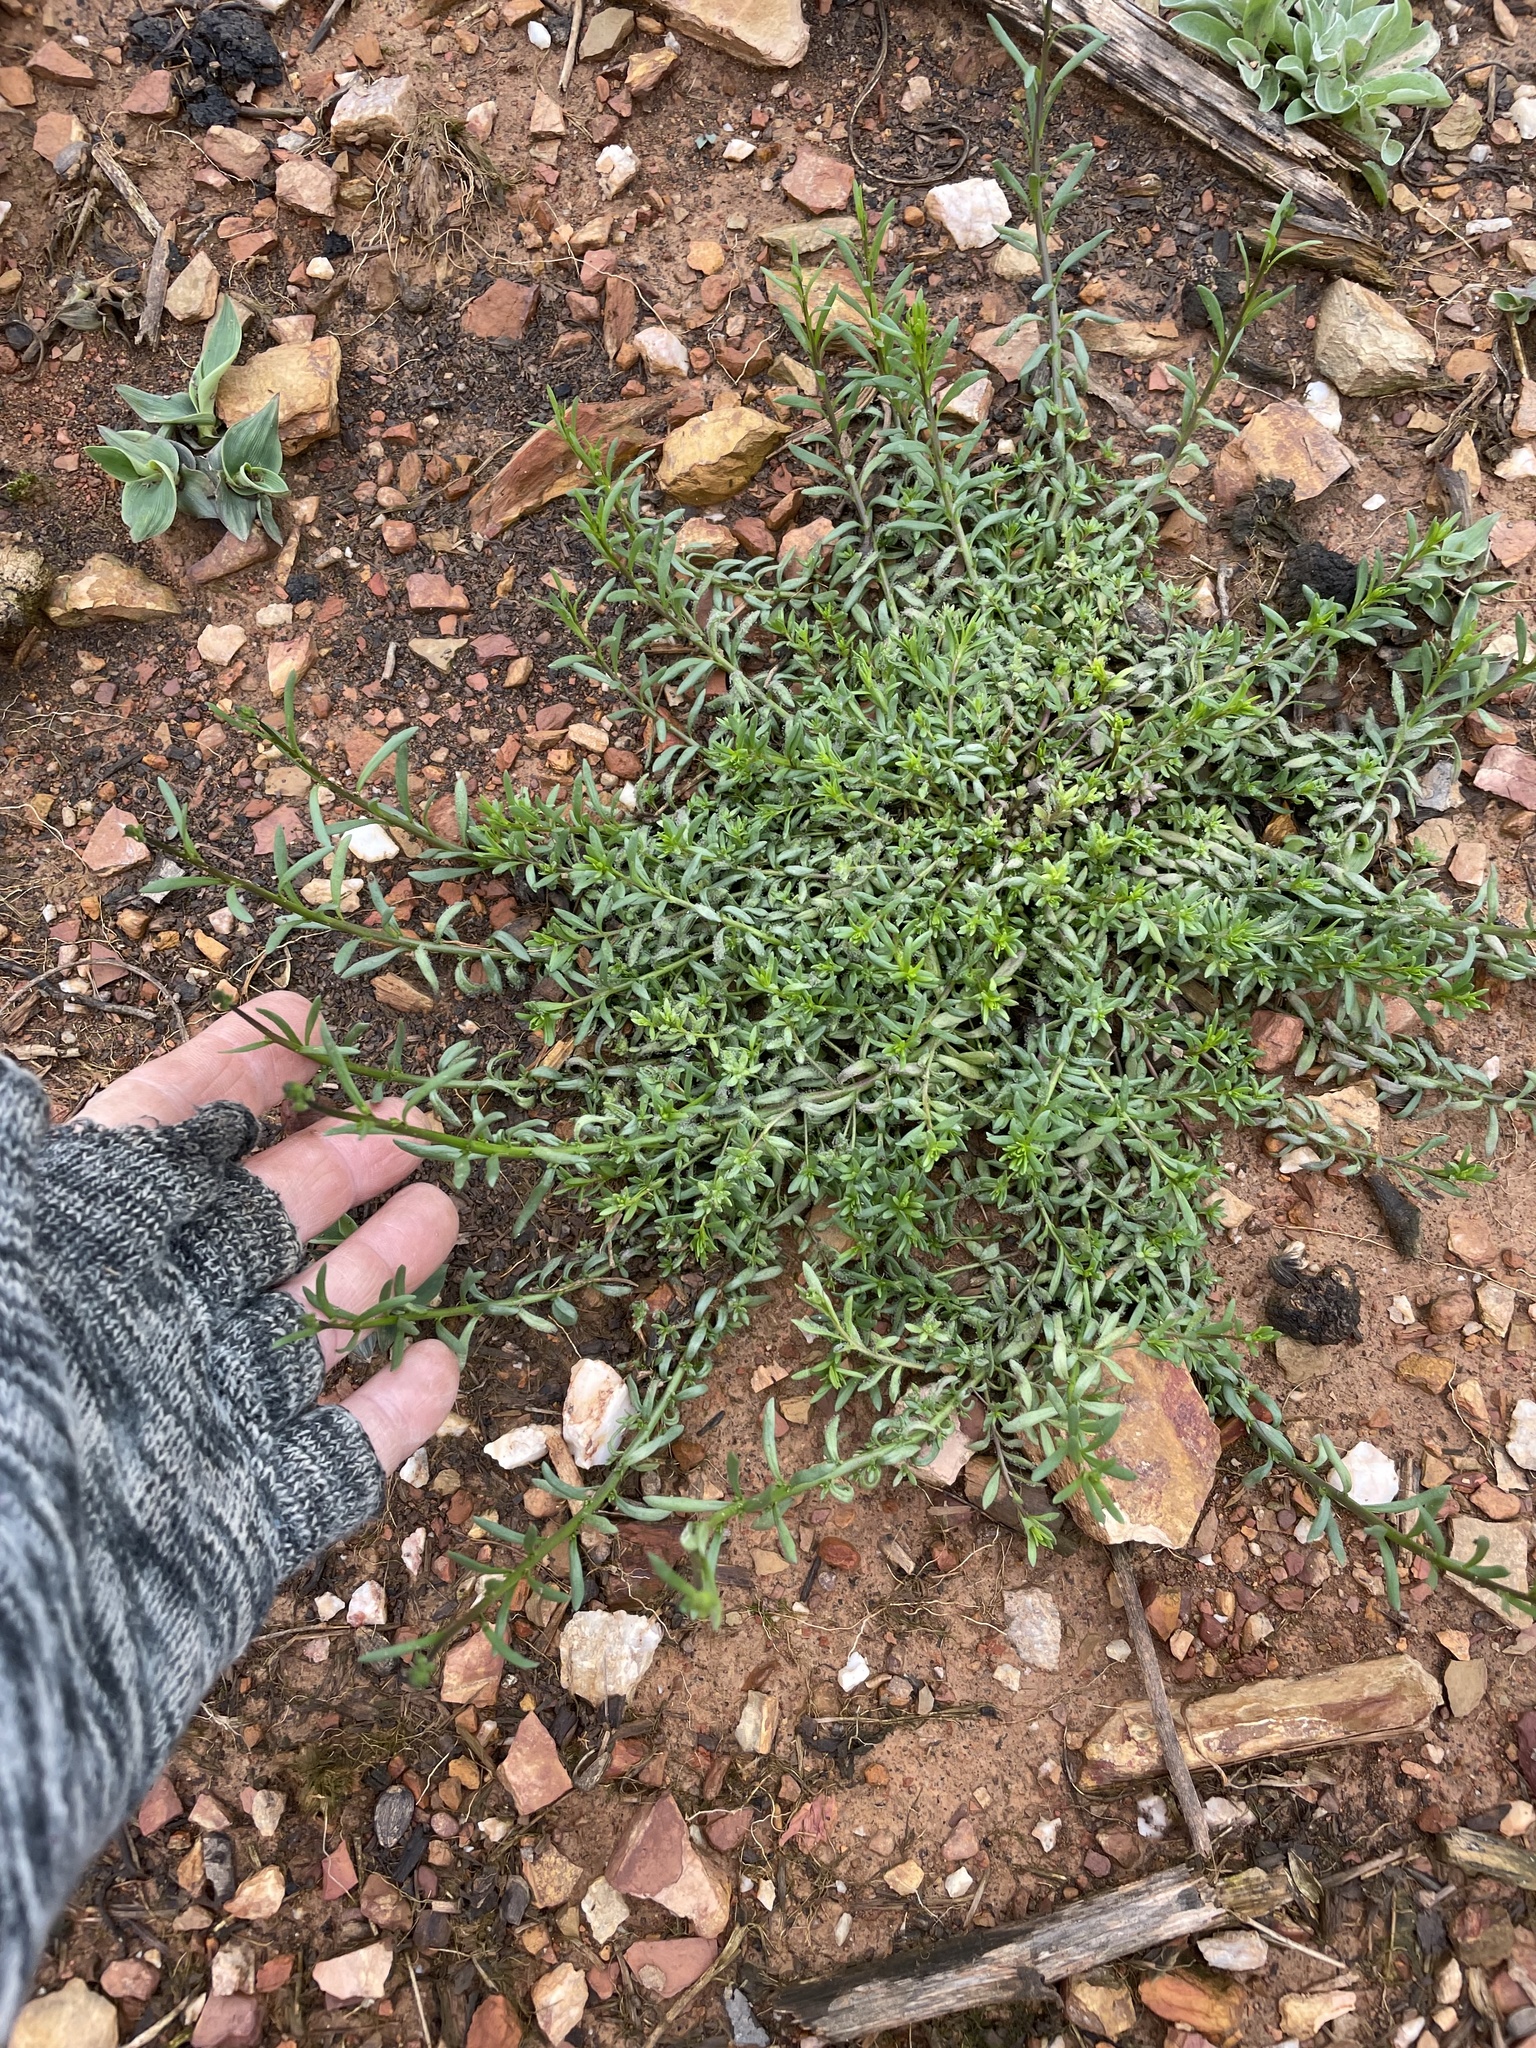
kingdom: Plantae
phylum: Tracheophyta
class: Magnoliopsida
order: Lamiales
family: Plantaginaceae
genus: Nuttallanthus
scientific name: Nuttallanthus canadensis
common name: Blue toadflax
